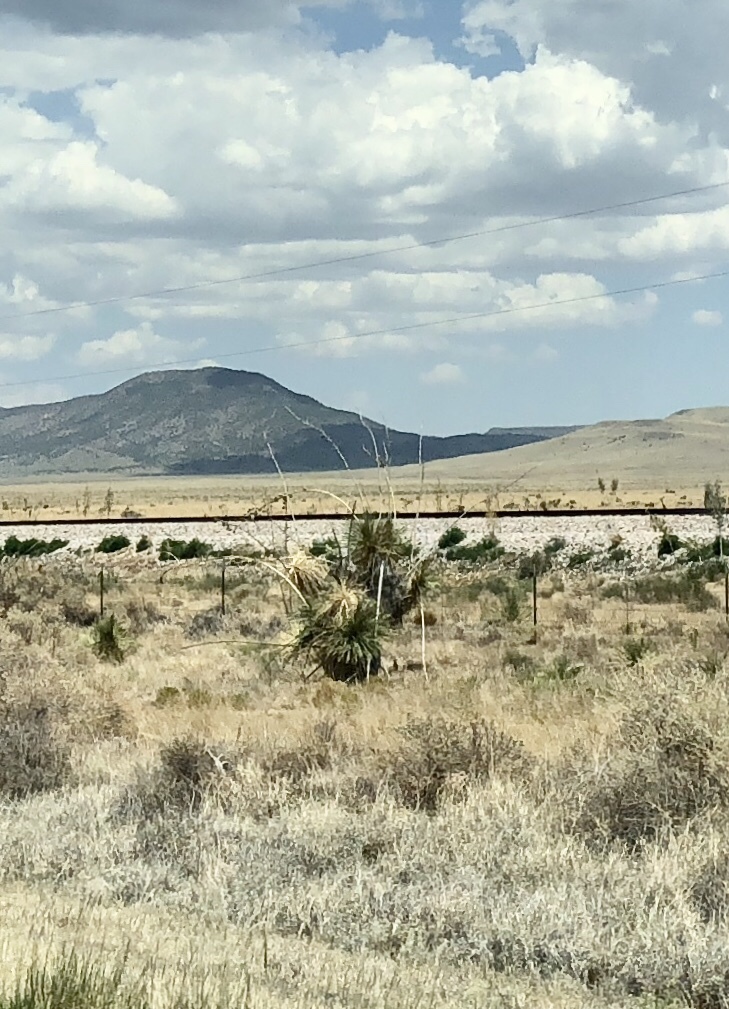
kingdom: Plantae
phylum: Tracheophyta
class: Liliopsida
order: Asparagales
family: Asparagaceae
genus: Yucca
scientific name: Yucca elata
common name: Palmella
